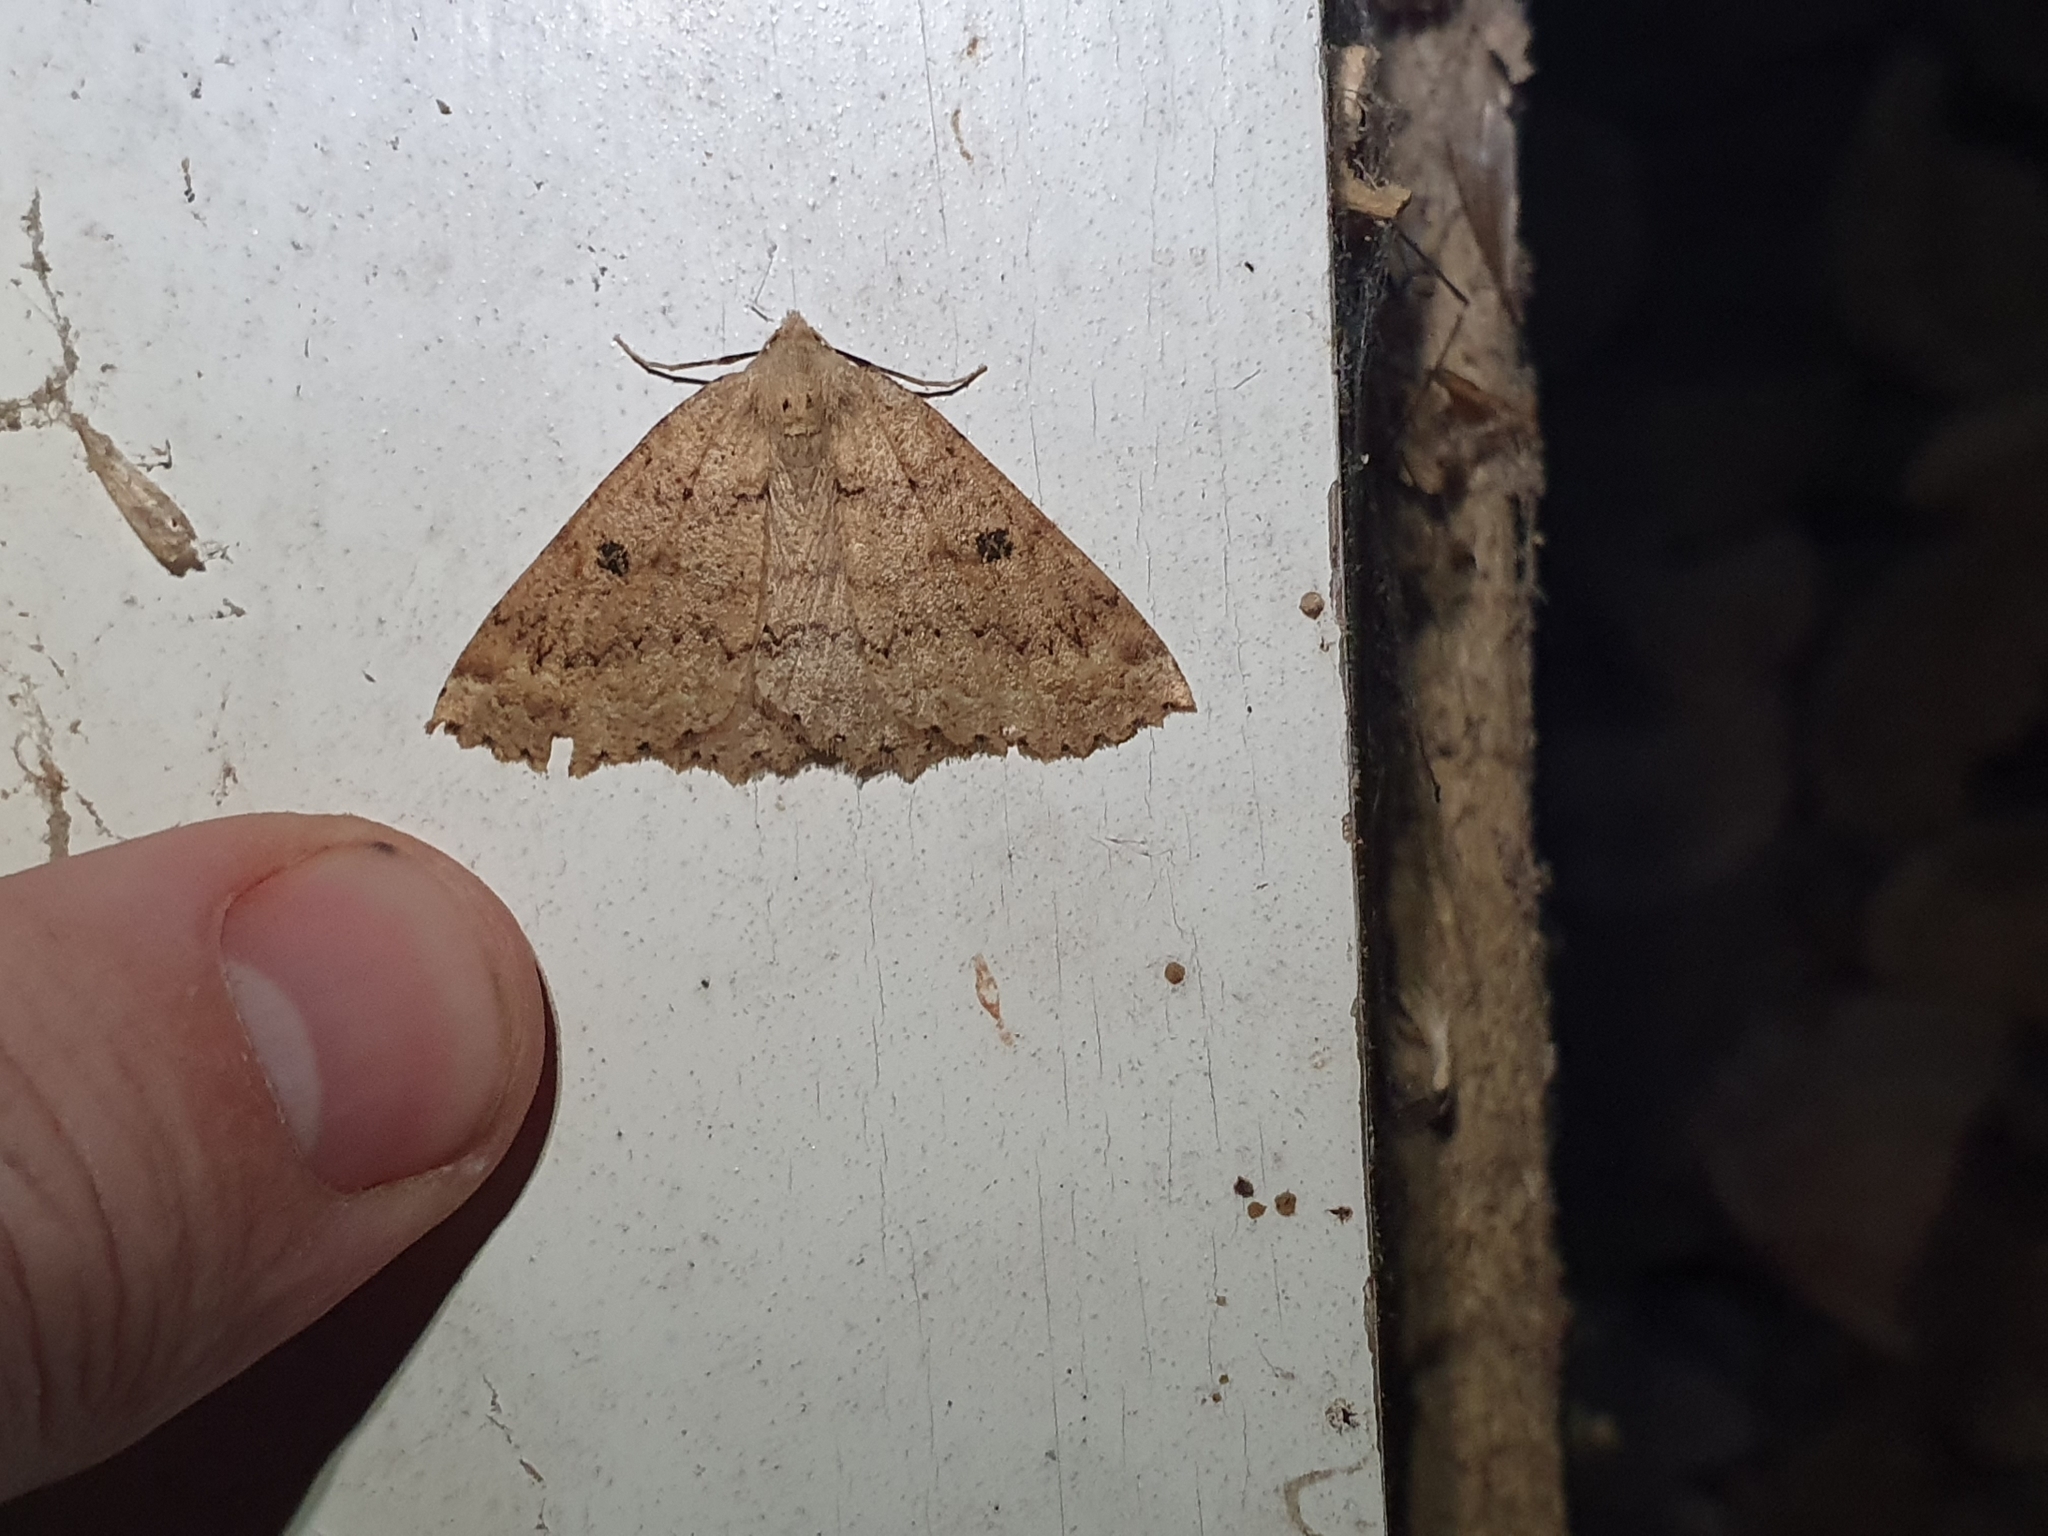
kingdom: Animalia
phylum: Arthropoda
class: Insecta
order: Lepidoptera
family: Geometridae
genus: Cleora
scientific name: Cleora scriptaria
